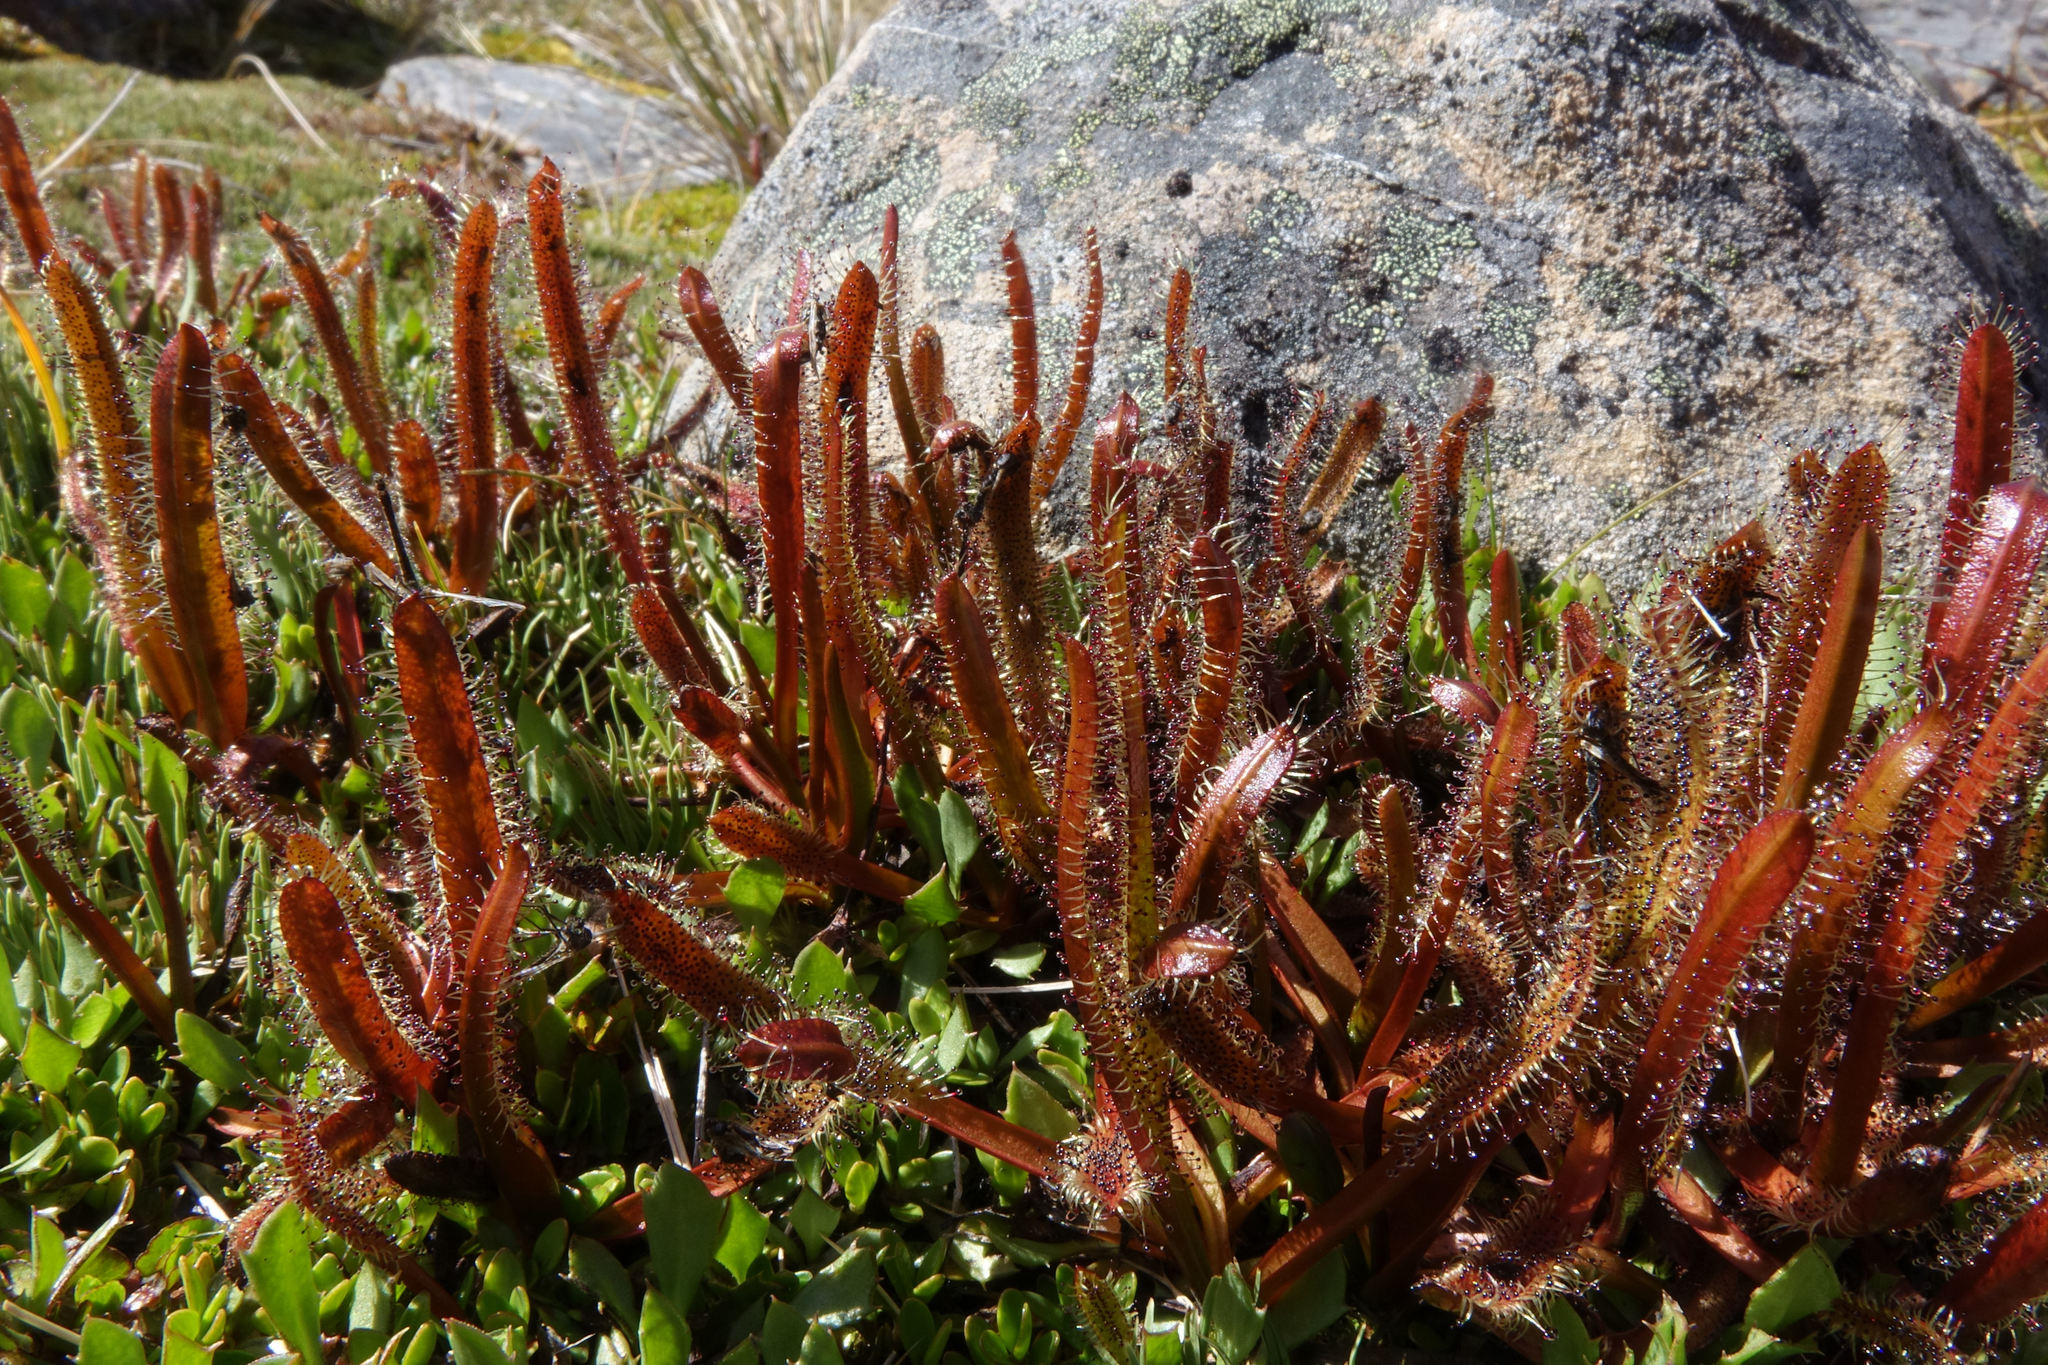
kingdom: Plantae
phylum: Tracheophyta
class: Magnoliopsida
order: Caryophyllales
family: Droseraceae
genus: Drosera
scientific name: Drosera arcturi
